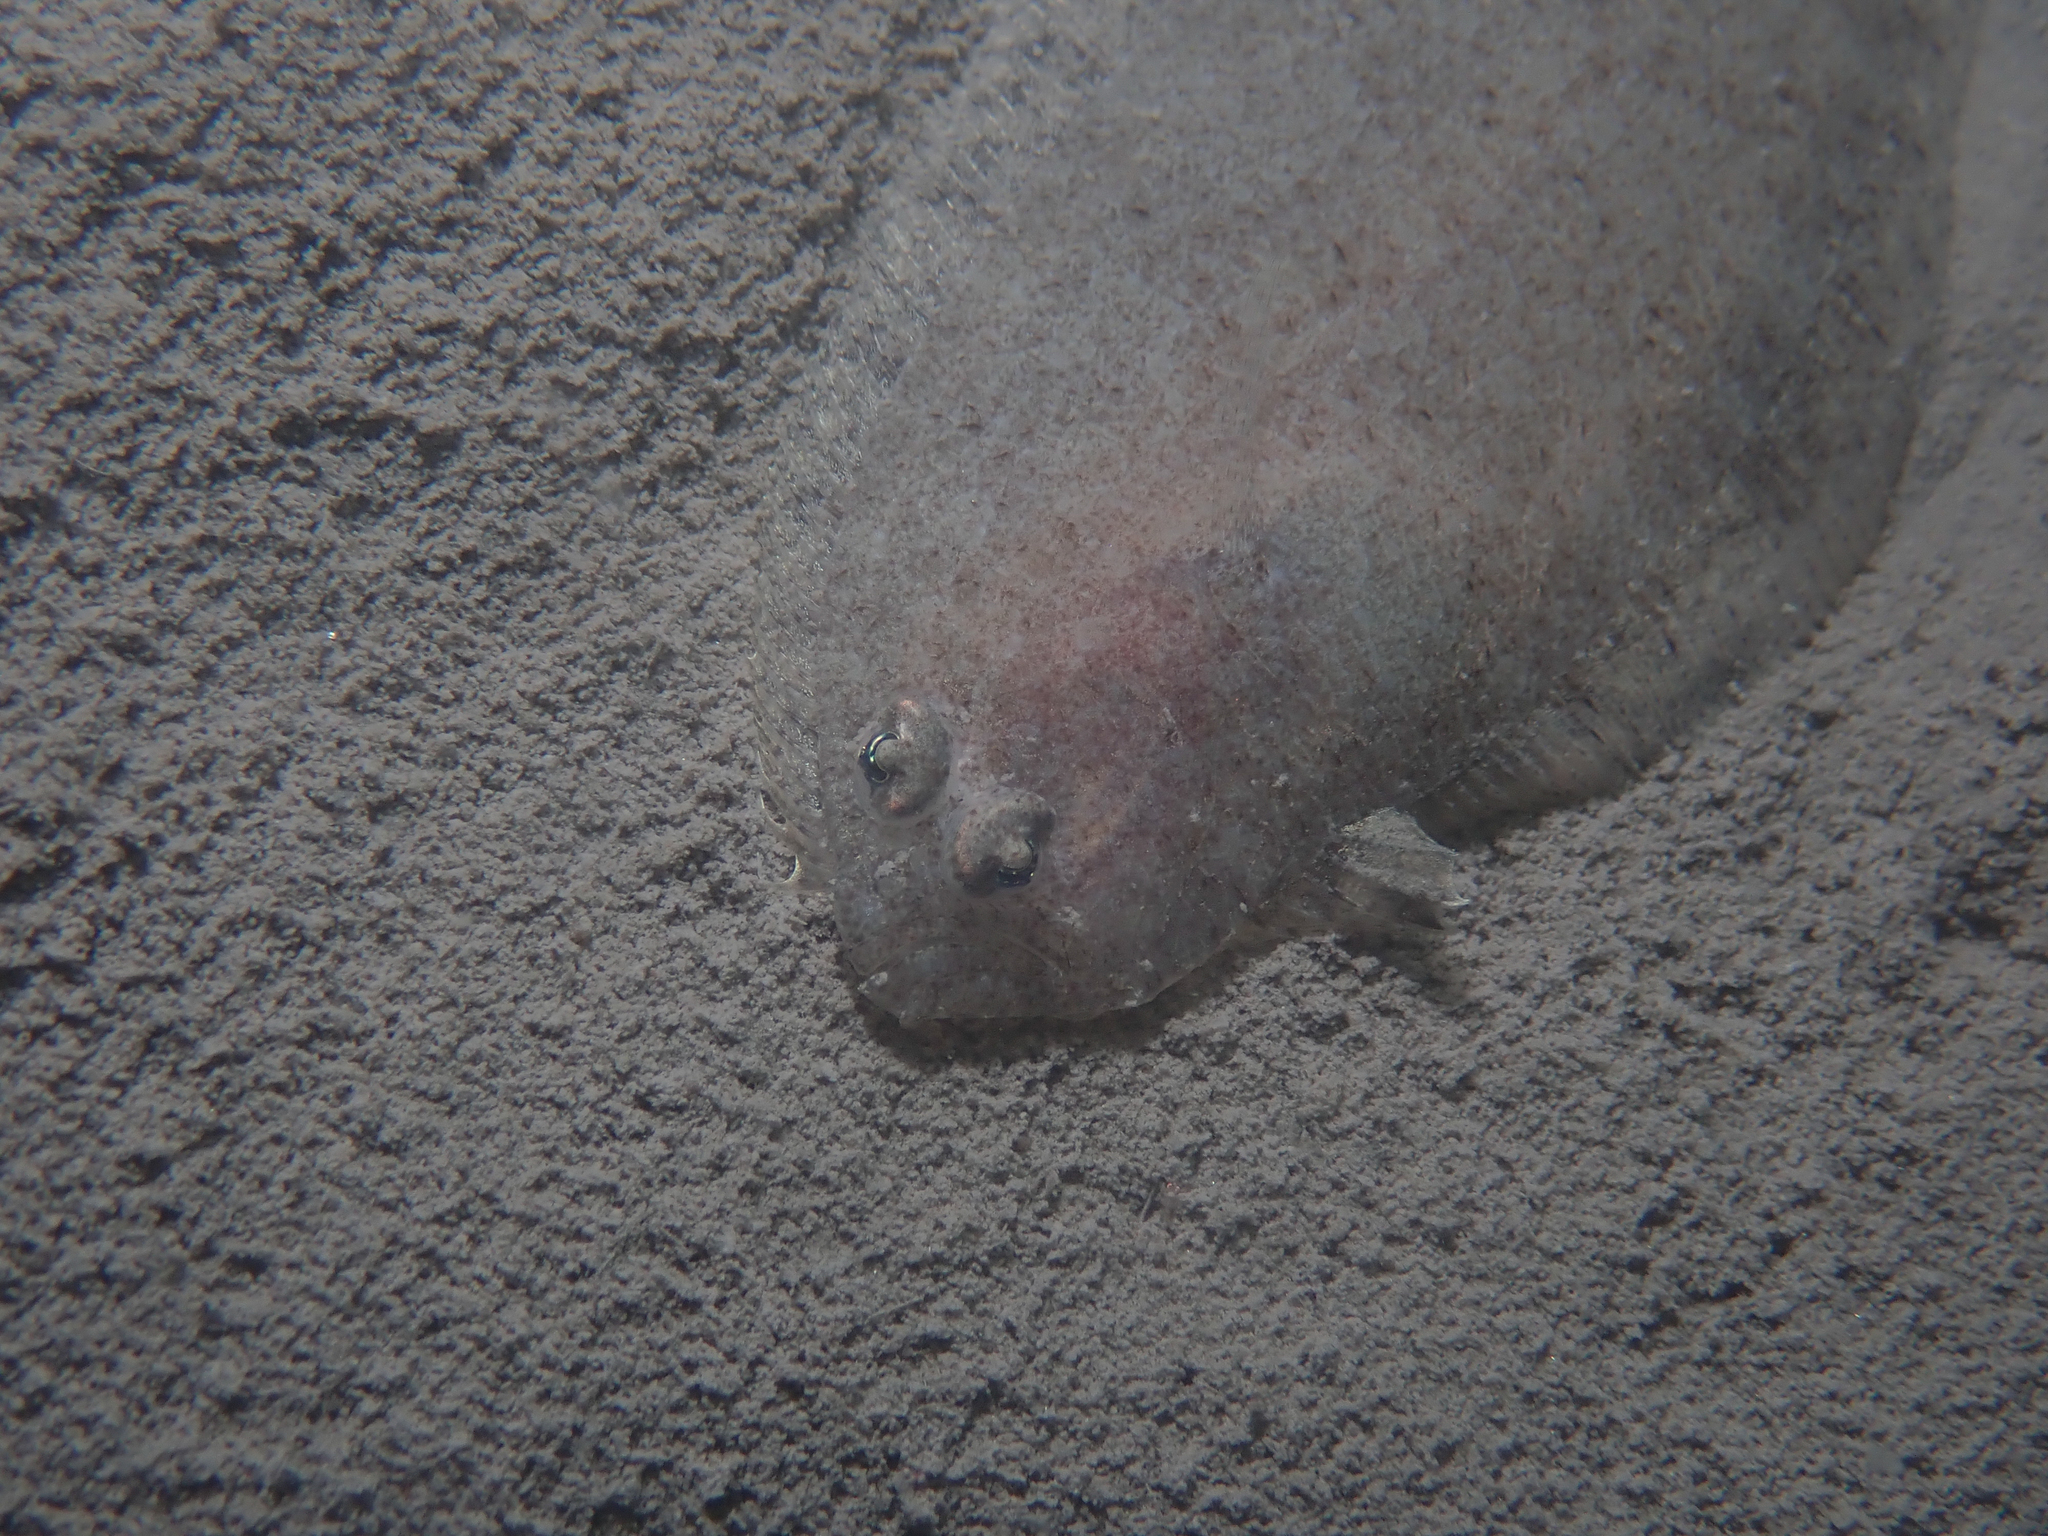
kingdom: Animalia
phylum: Chordata
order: Pleuronectiformes
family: Bothidae
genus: Arnoglossus
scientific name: Arnoglossus laterna
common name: Scaldfish
